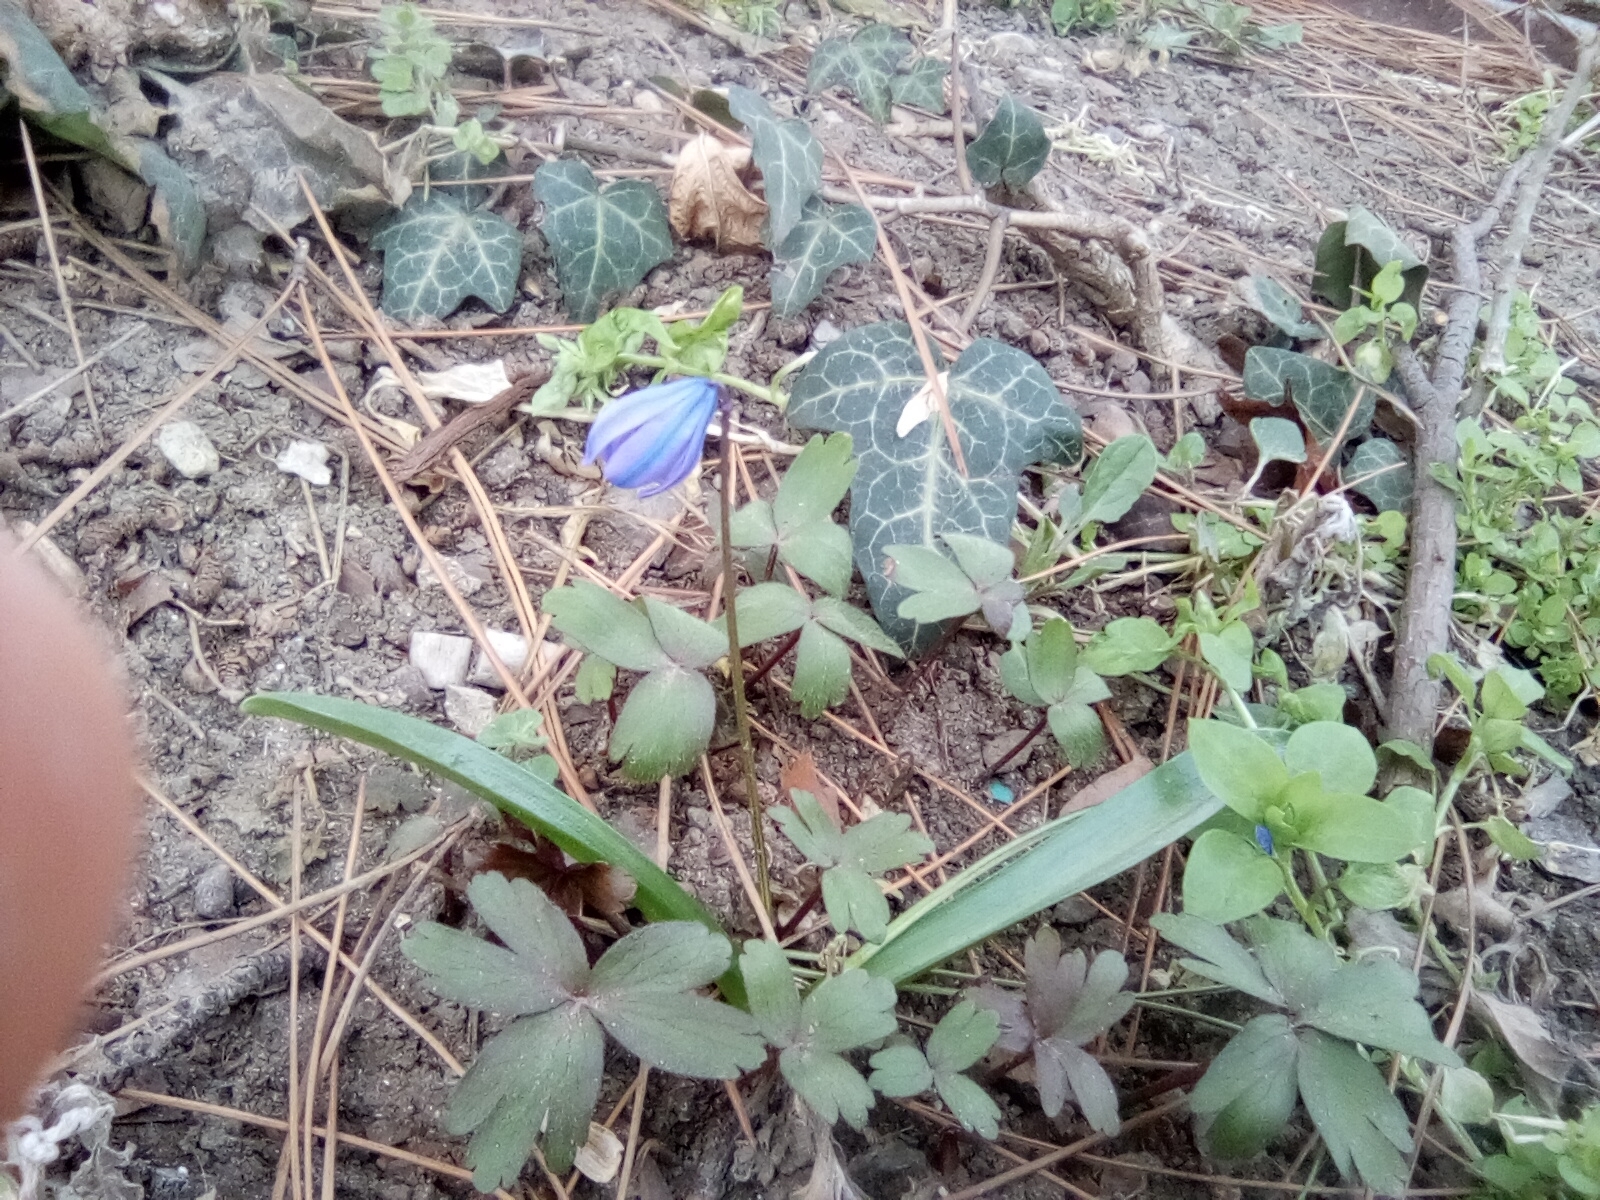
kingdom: Plantae
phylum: Tracheophyta
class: Liliopsida
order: Asparagales
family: Asparagaceae
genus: Scilla
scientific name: Scilla siberica
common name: Siberian squill
